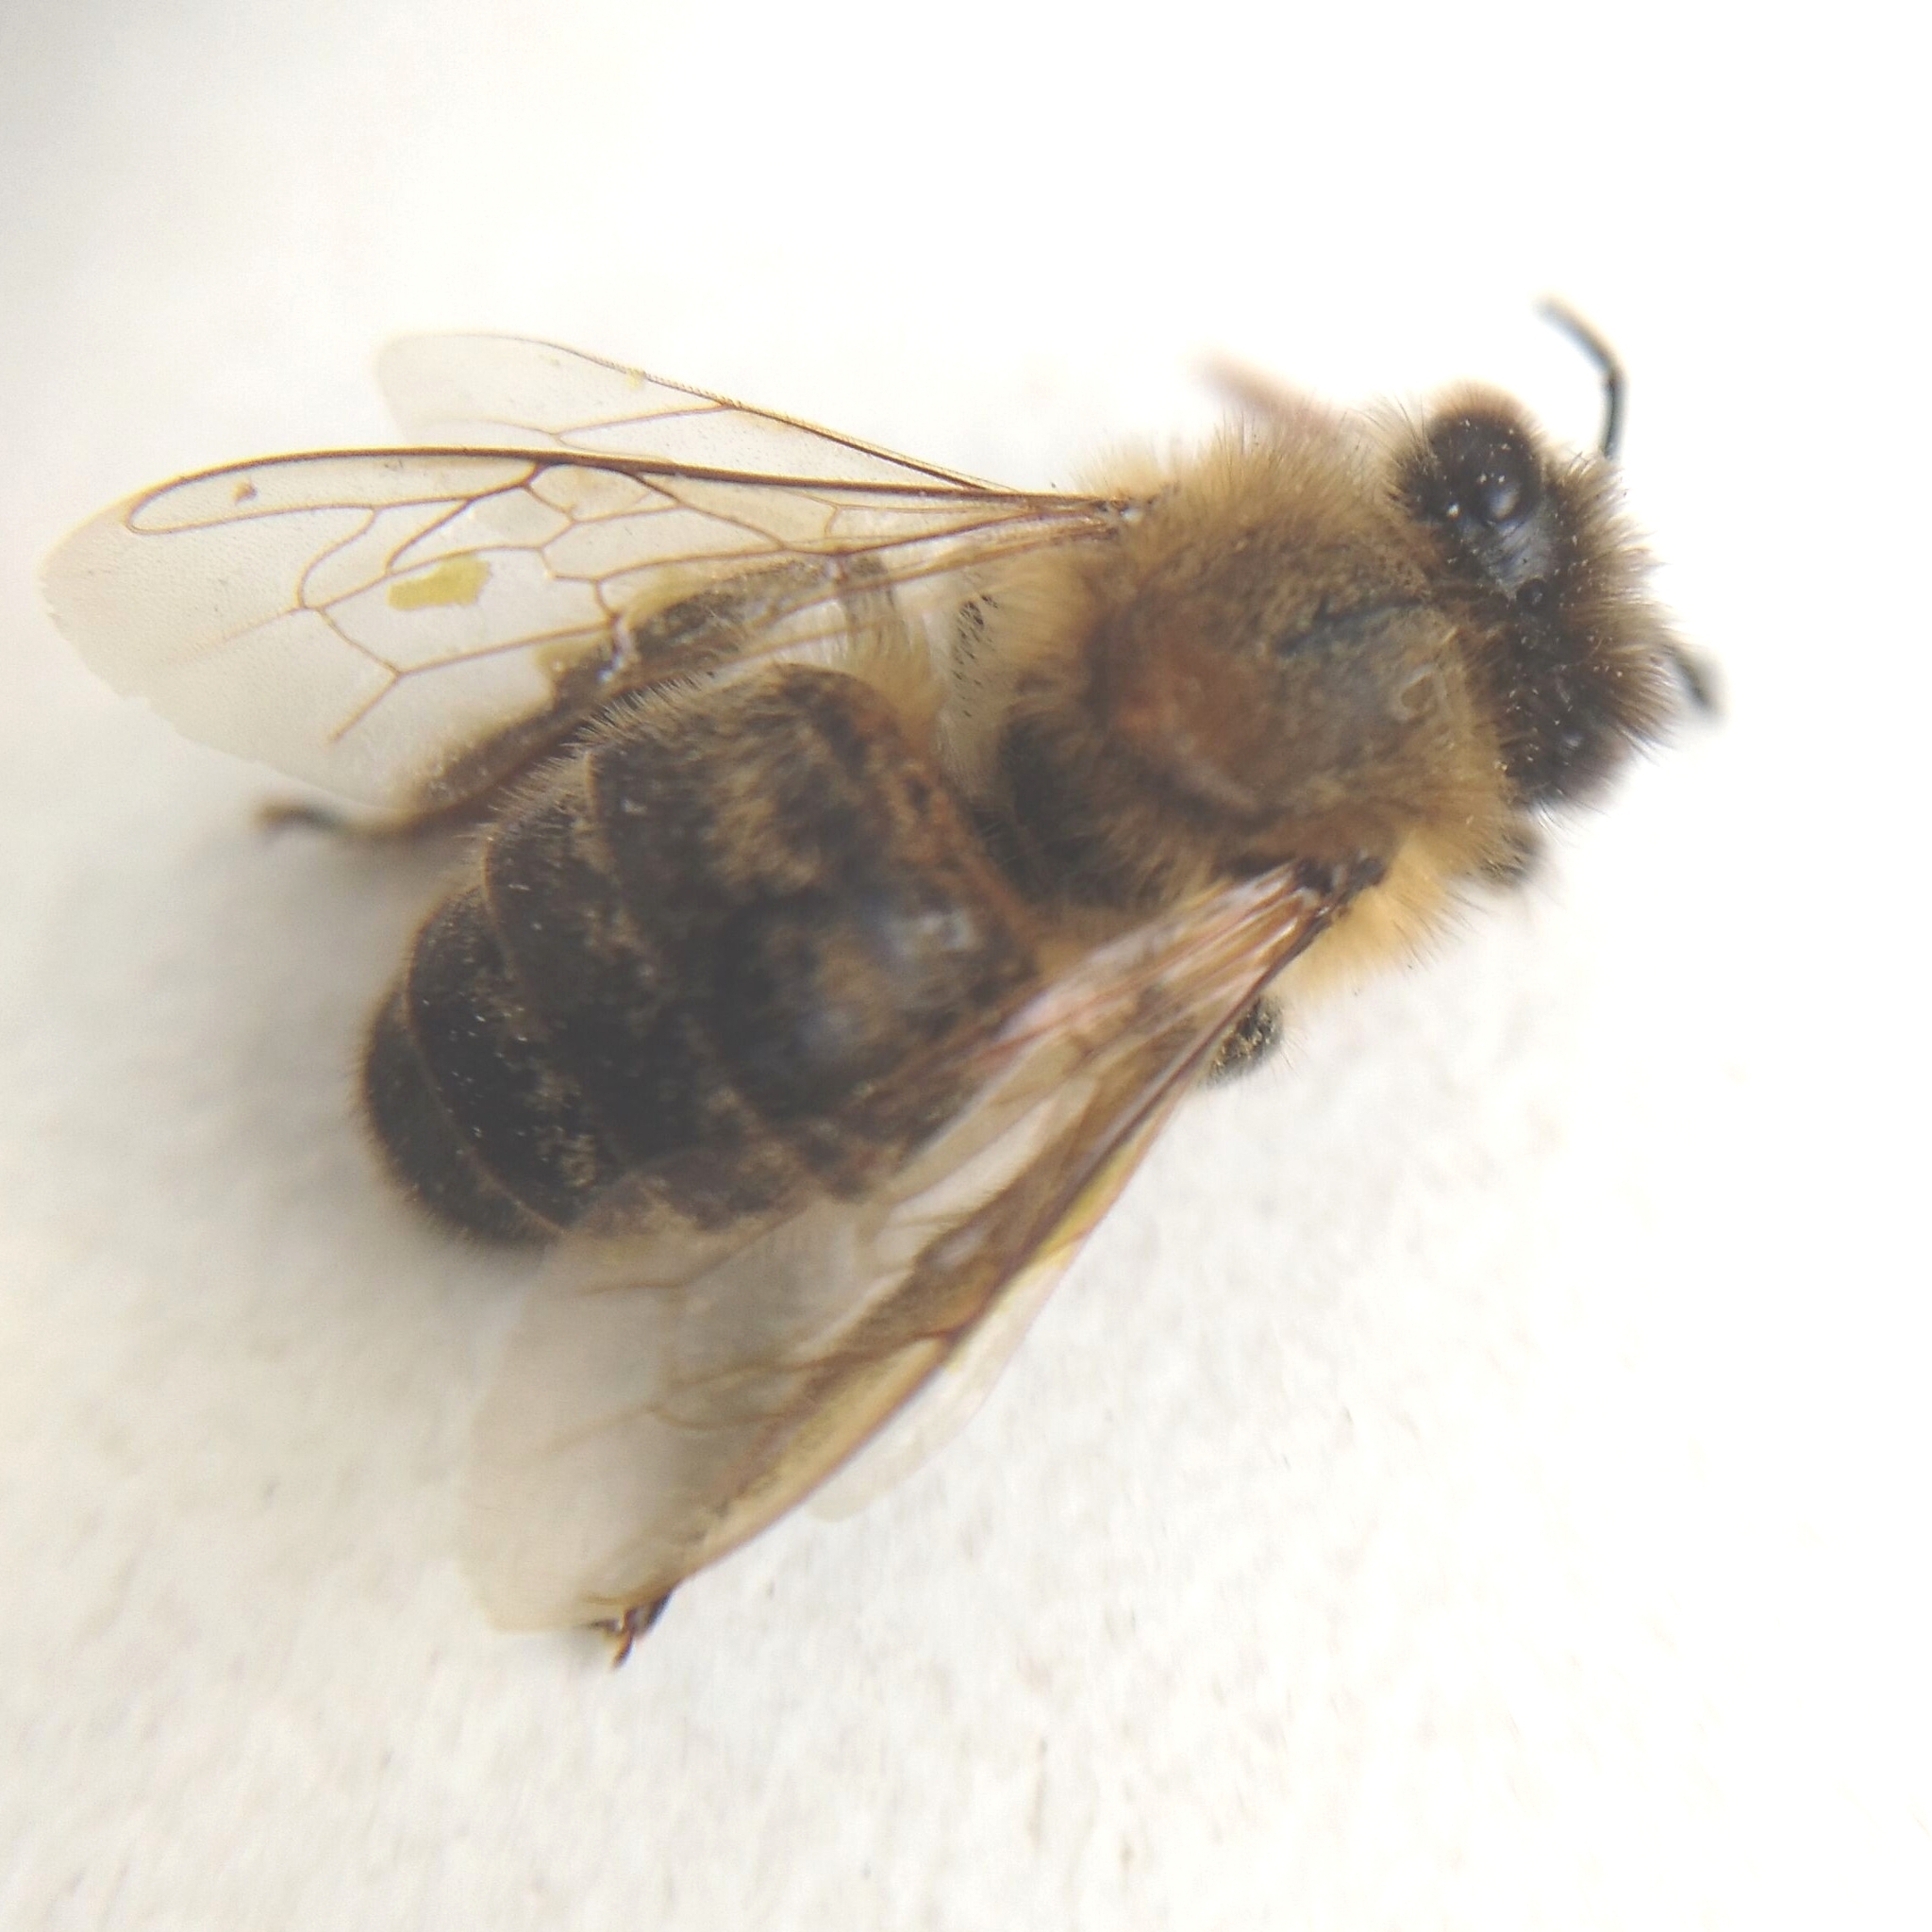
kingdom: Animalia
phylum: Arthropoda
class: Insecta
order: Hymenoptera
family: Apidae
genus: Apis
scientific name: Apis mellifera
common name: Honey bee
